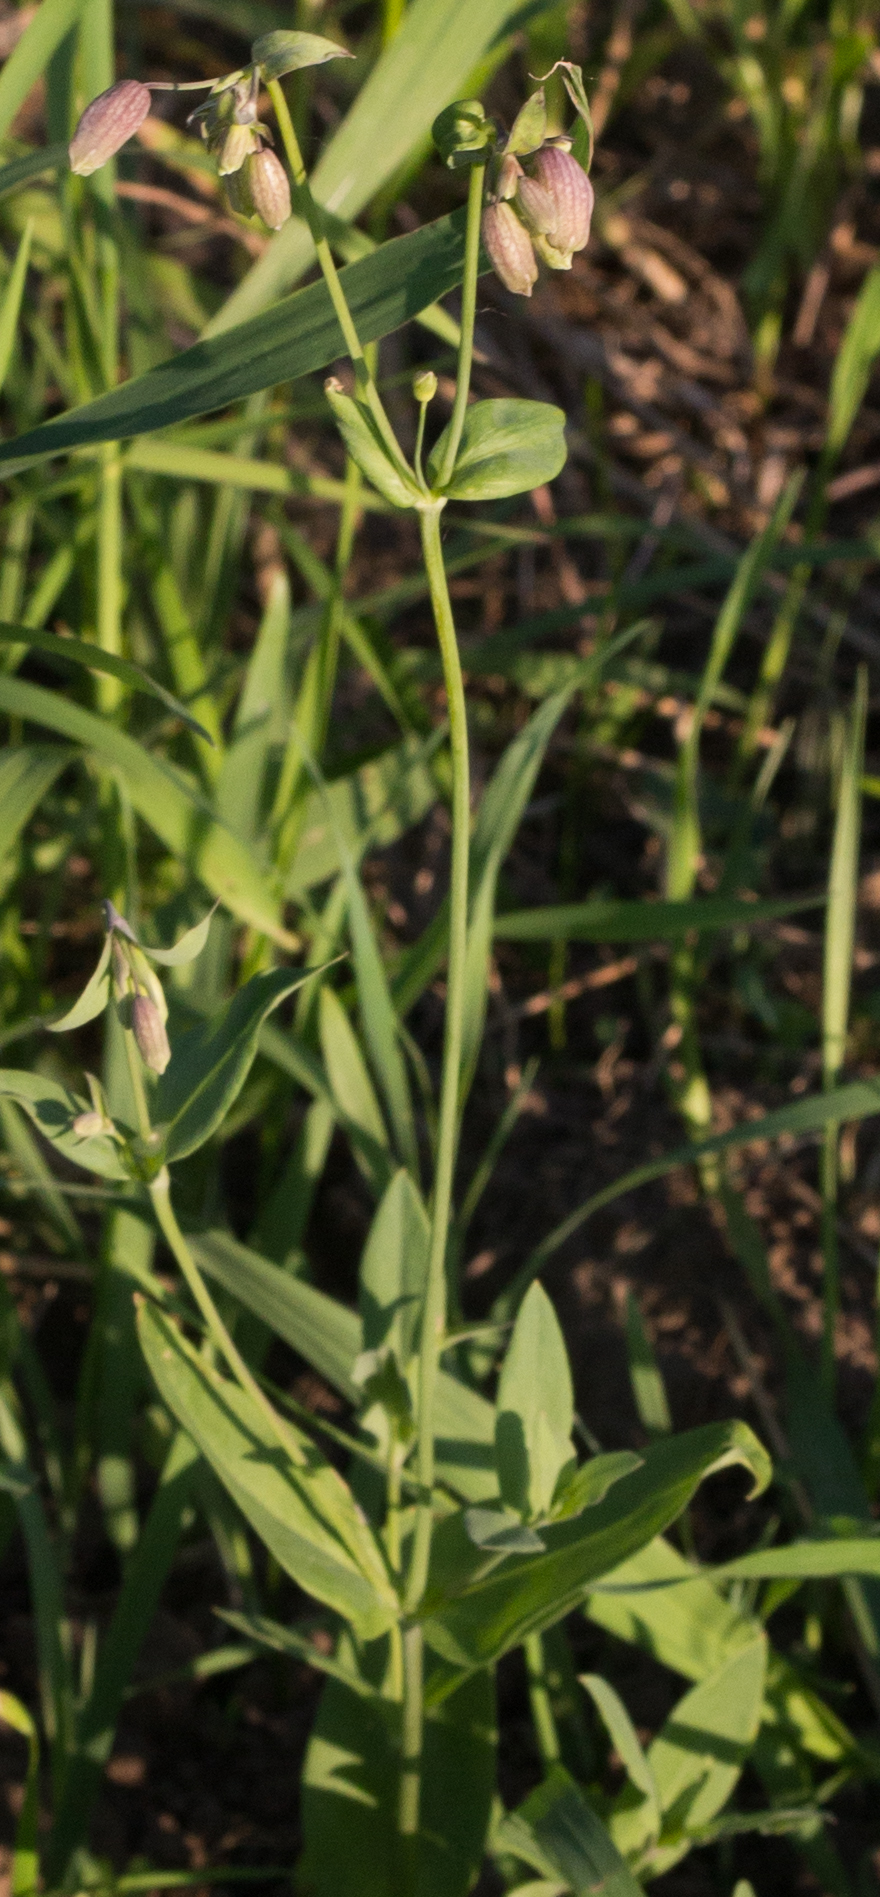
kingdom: Plantae
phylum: Tracheophyta
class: Magnoliopsida
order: Caryophyllales
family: Caryophyllaceae
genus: Silene
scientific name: Silene vulgaris
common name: Bladder campion
